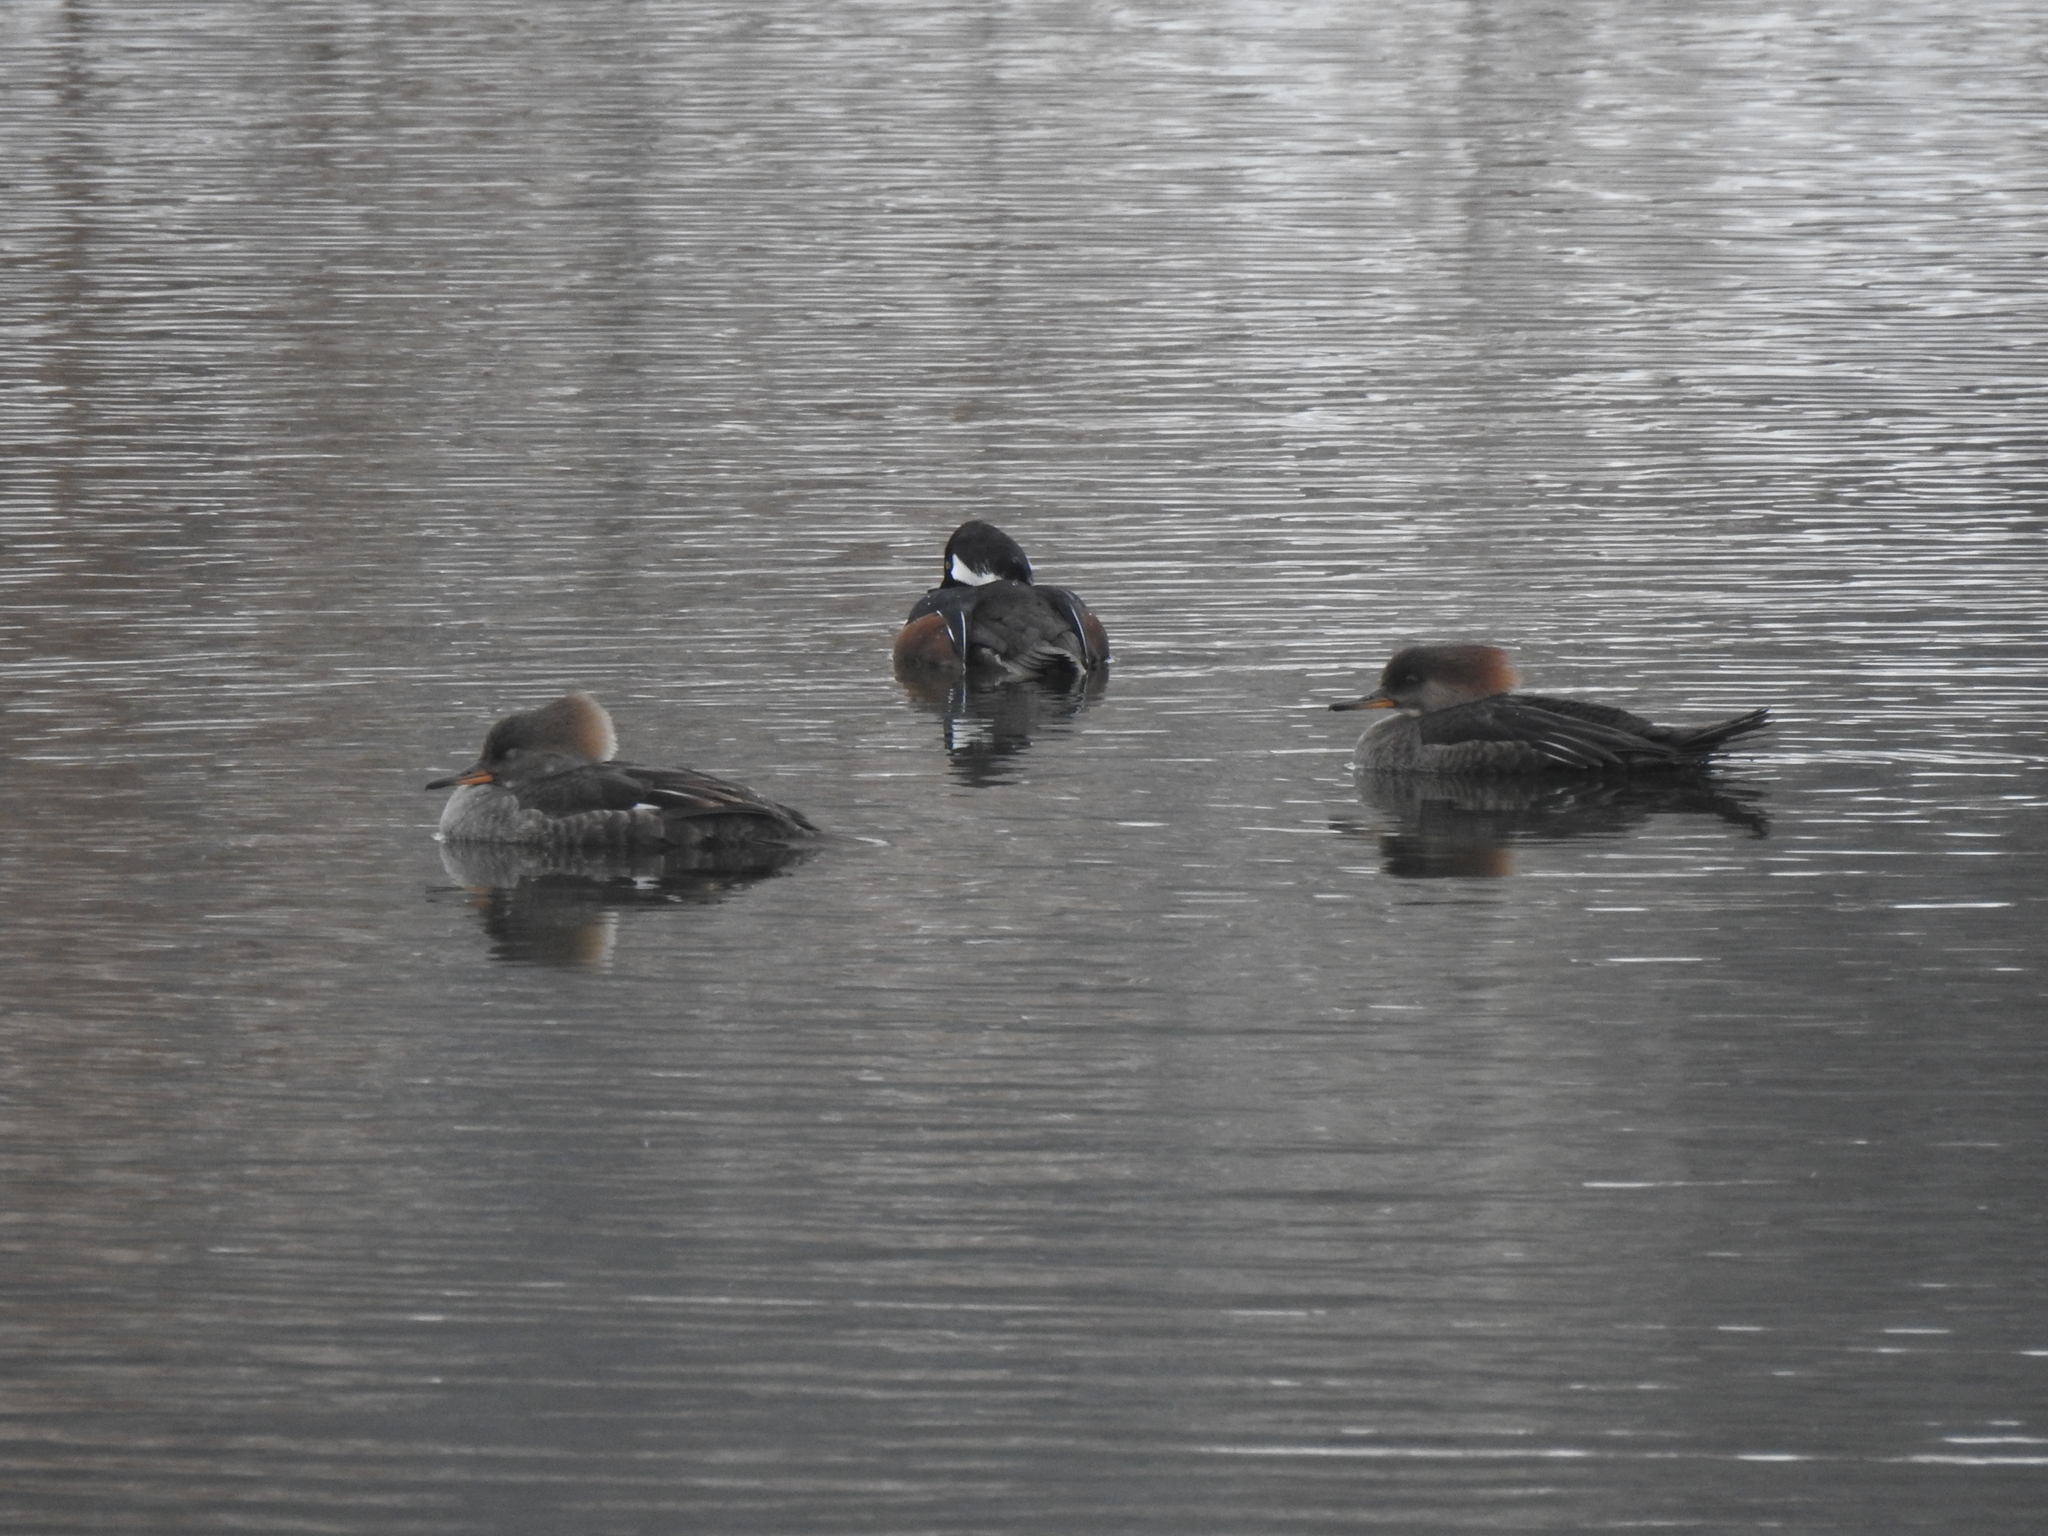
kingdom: Animalia
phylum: Chordata
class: Aves
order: Anseriformes
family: Anatidae
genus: Lophodytes
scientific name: Lophodytes cucullatus
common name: Hooded merganser
